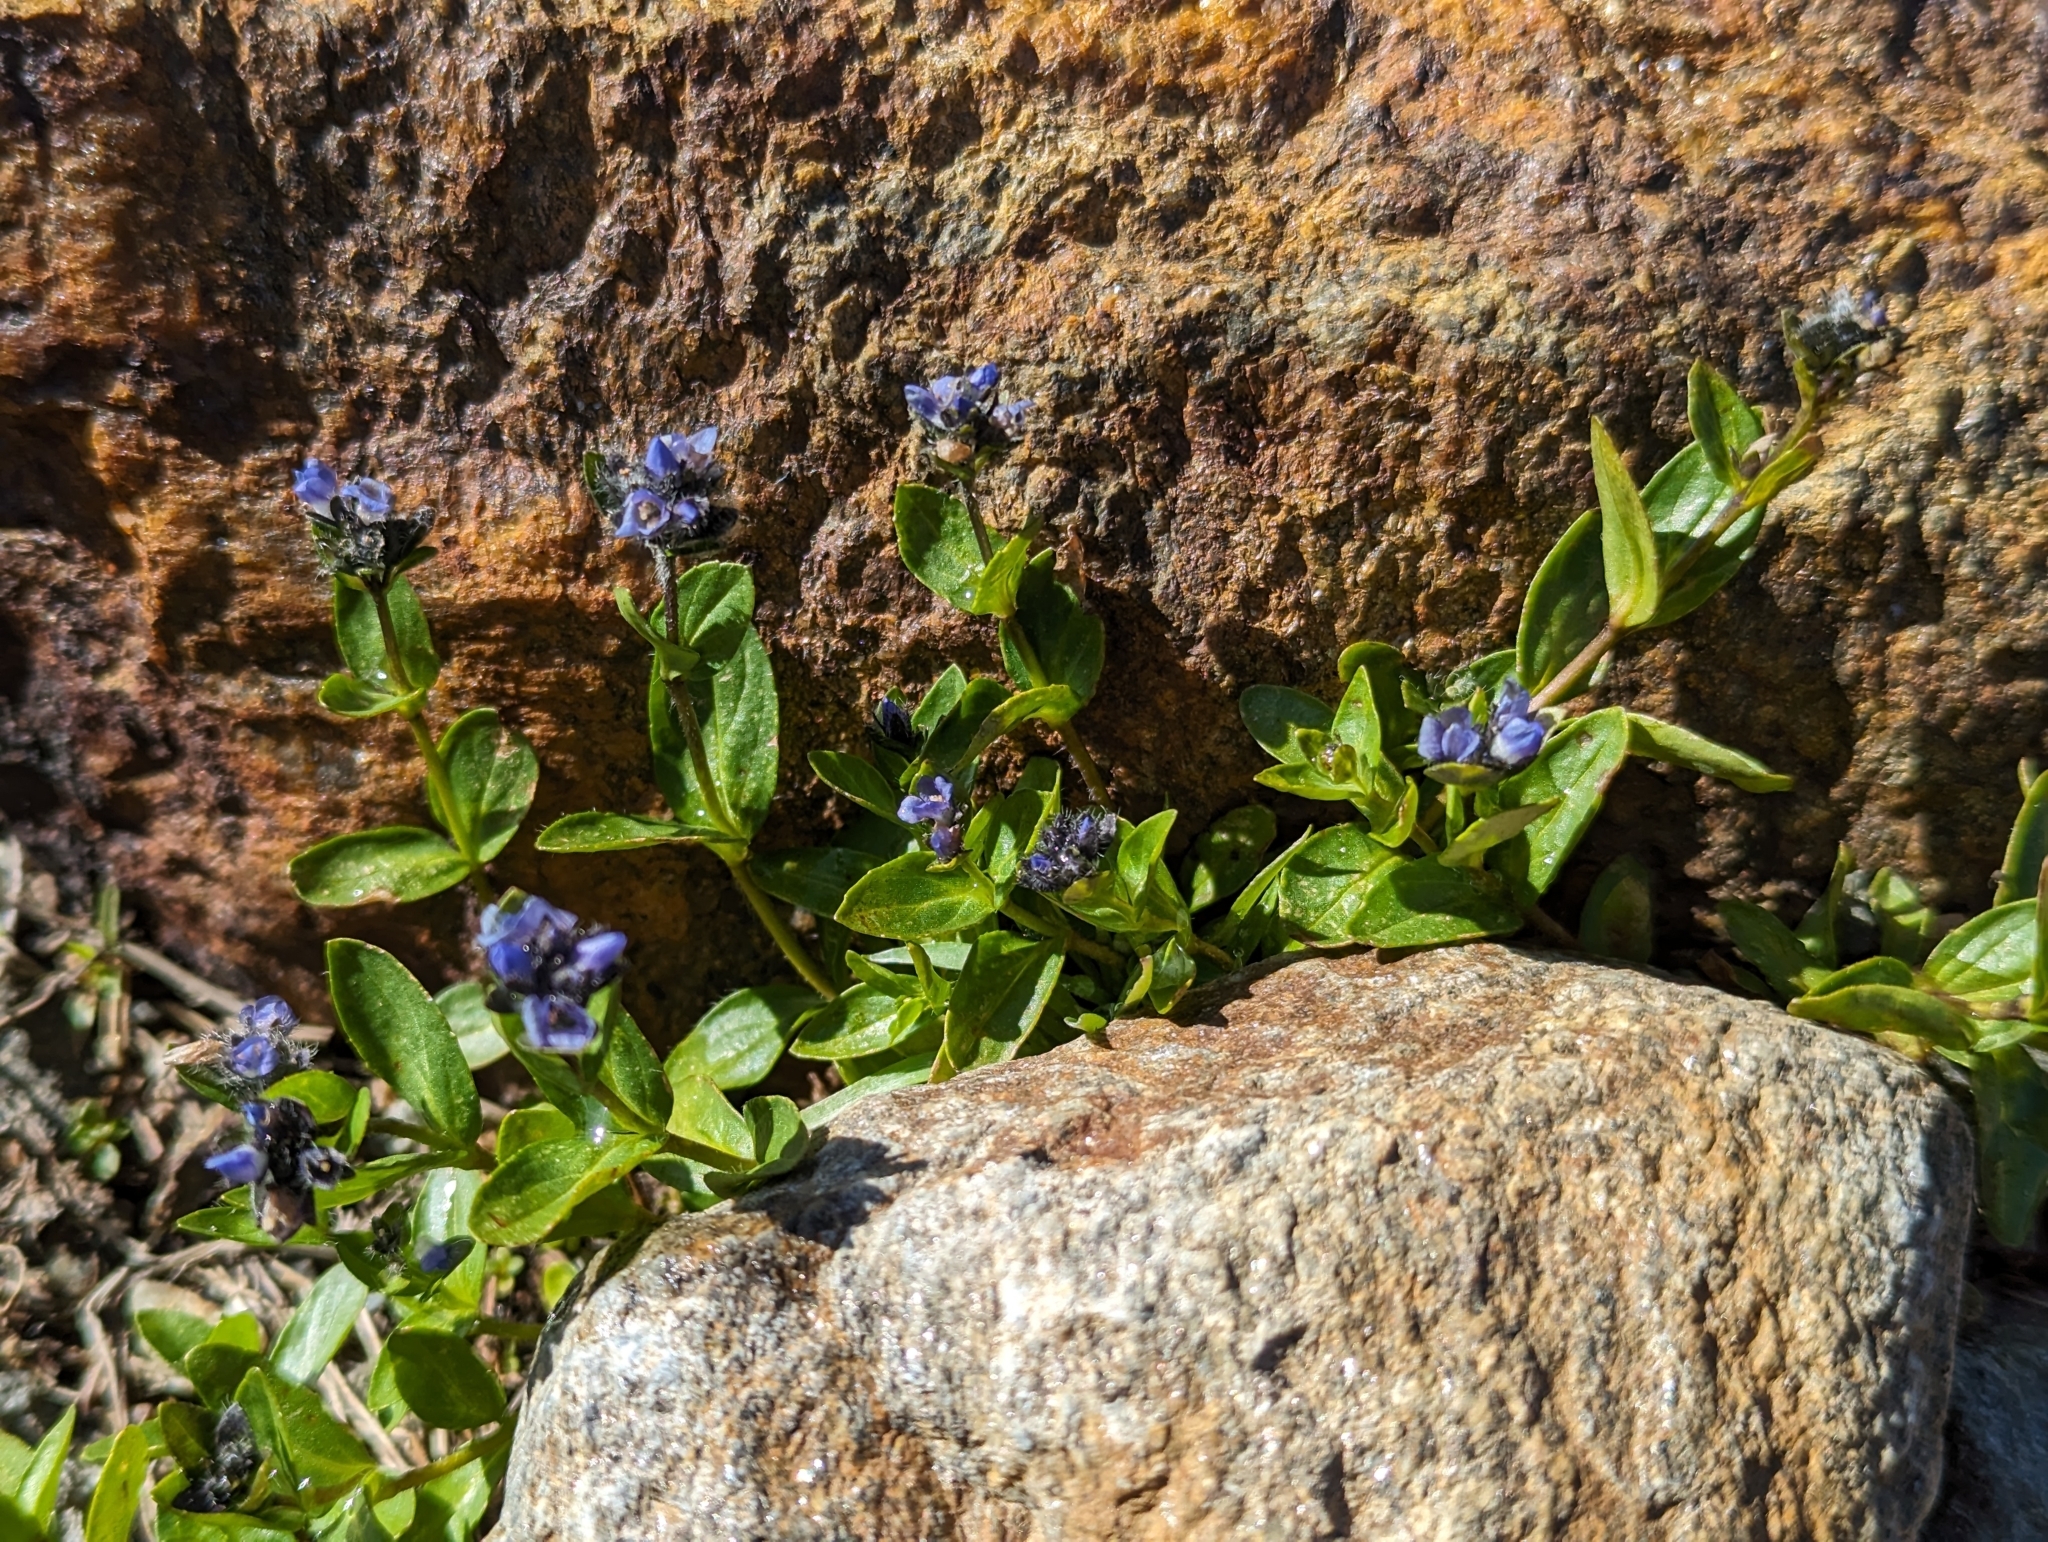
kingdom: Plantae
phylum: Tracheophyta
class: Magnoliopsida
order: Lamiales
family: Plantaginaceae
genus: Veronica
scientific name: Veronica alpina
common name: Alpine speedwell
